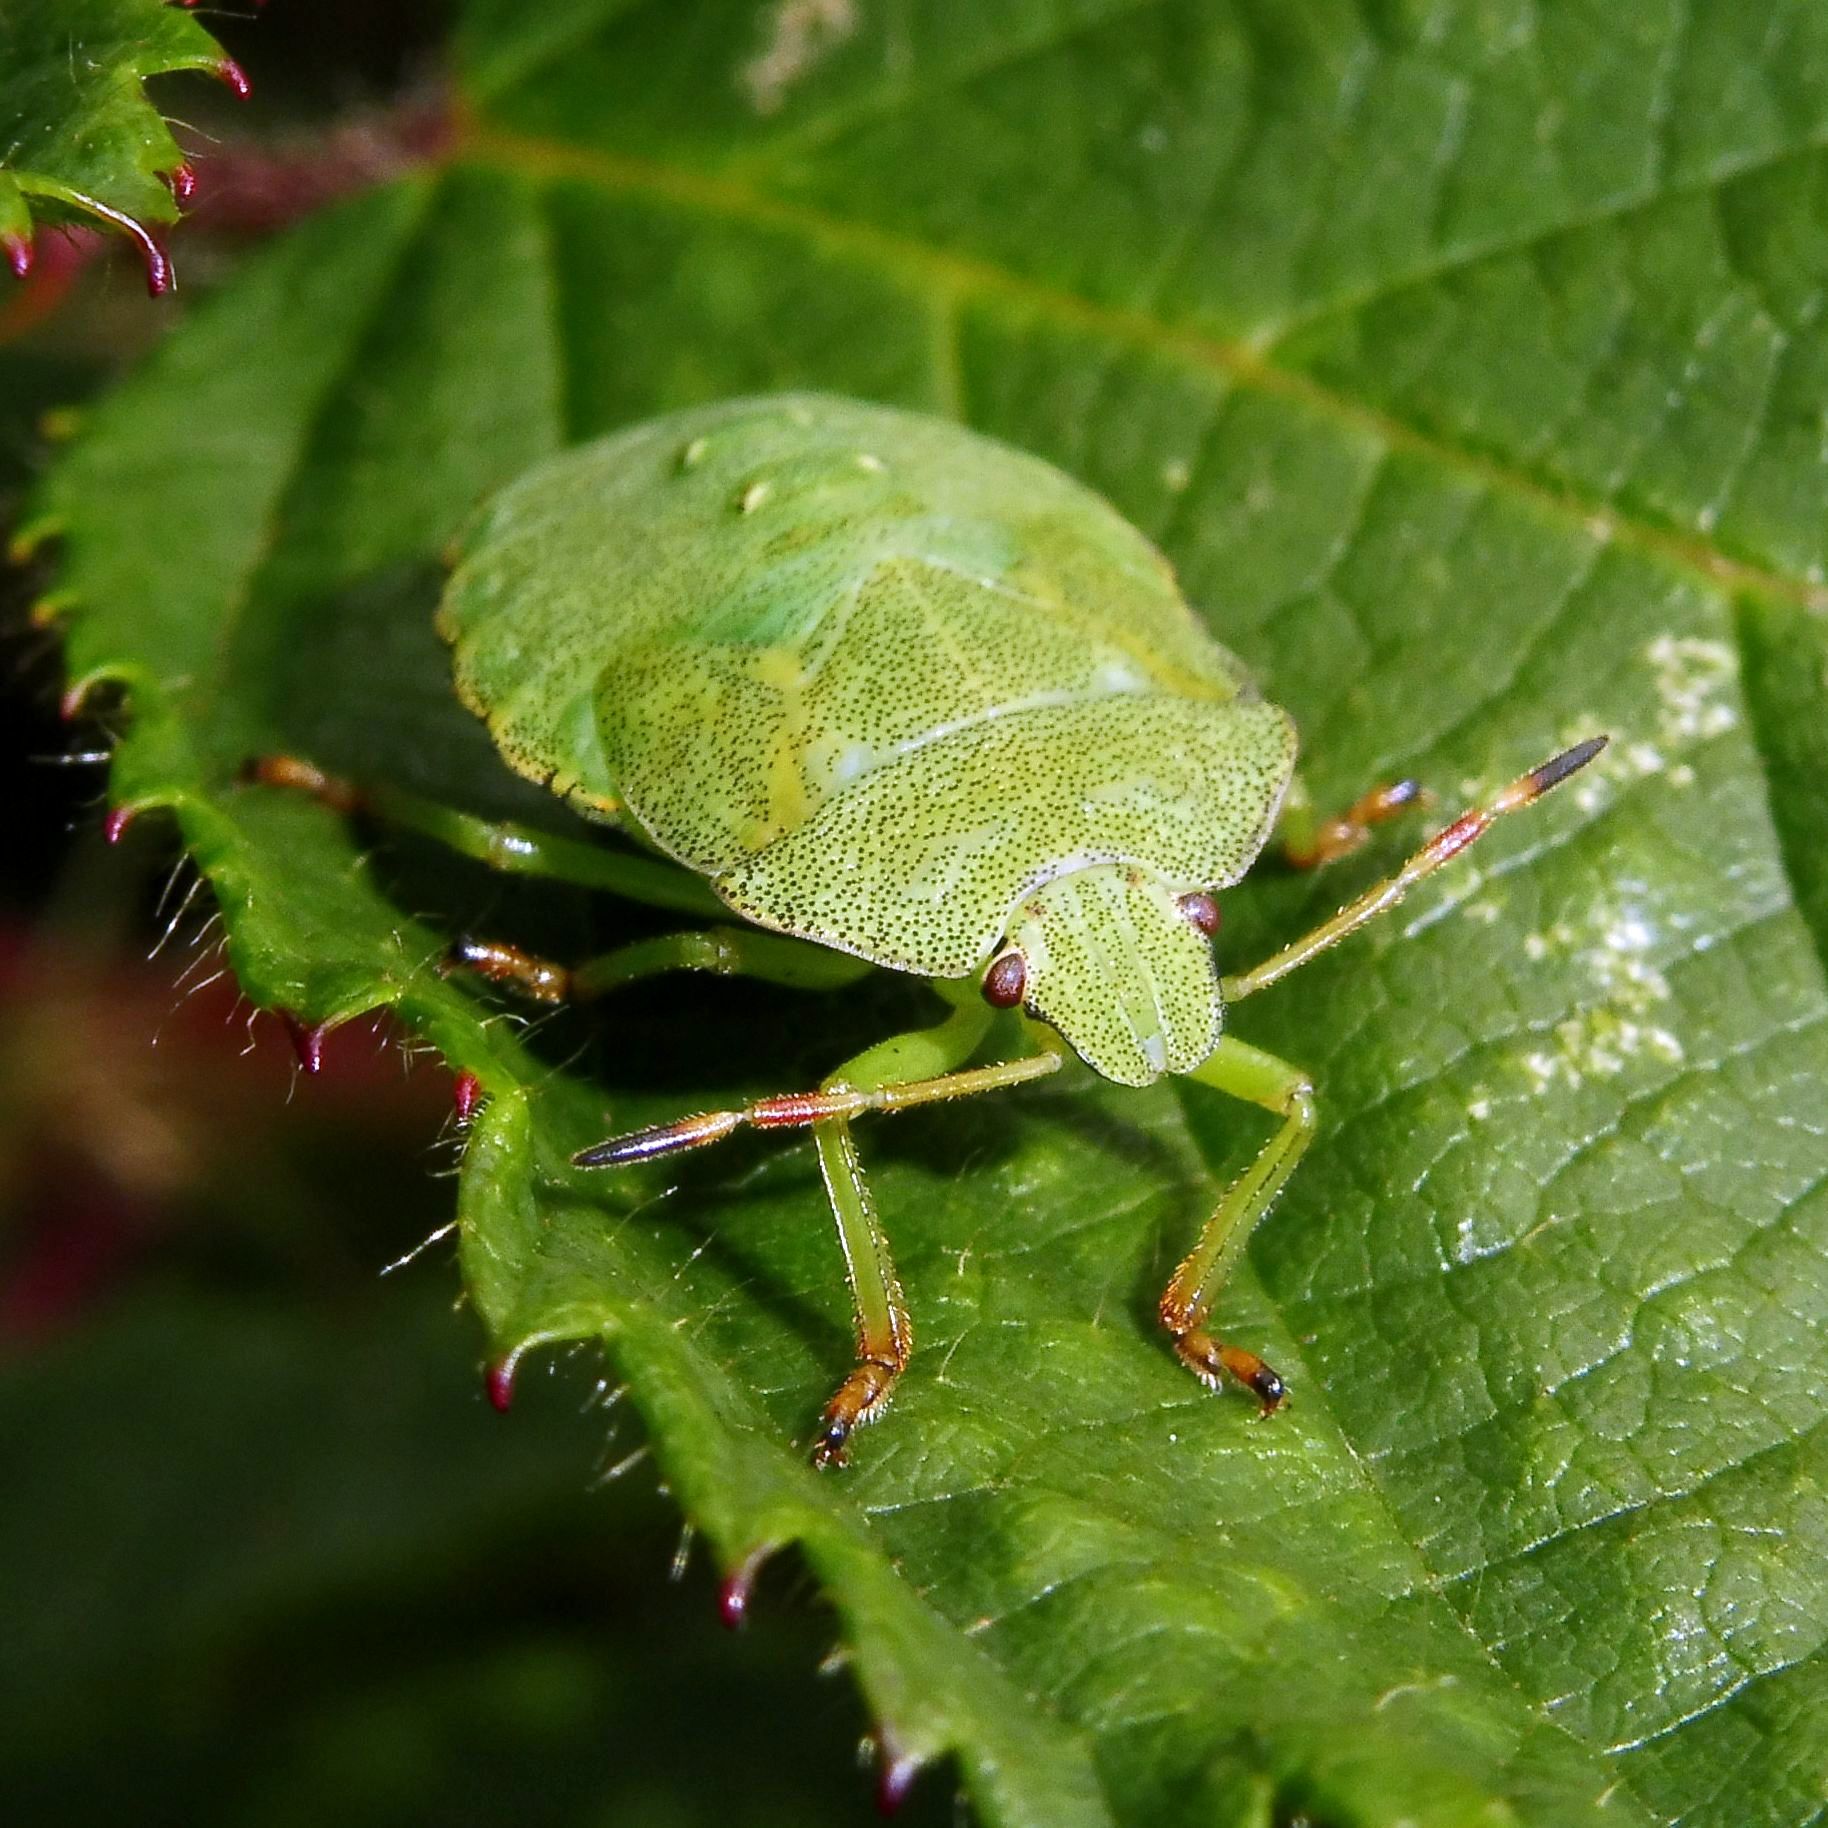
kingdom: Animalia
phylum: Arthropoda
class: Insecta
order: Hemiptera
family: Pentatomidae
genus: Palomena
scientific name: Palomena prasina
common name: Green shieldbug
